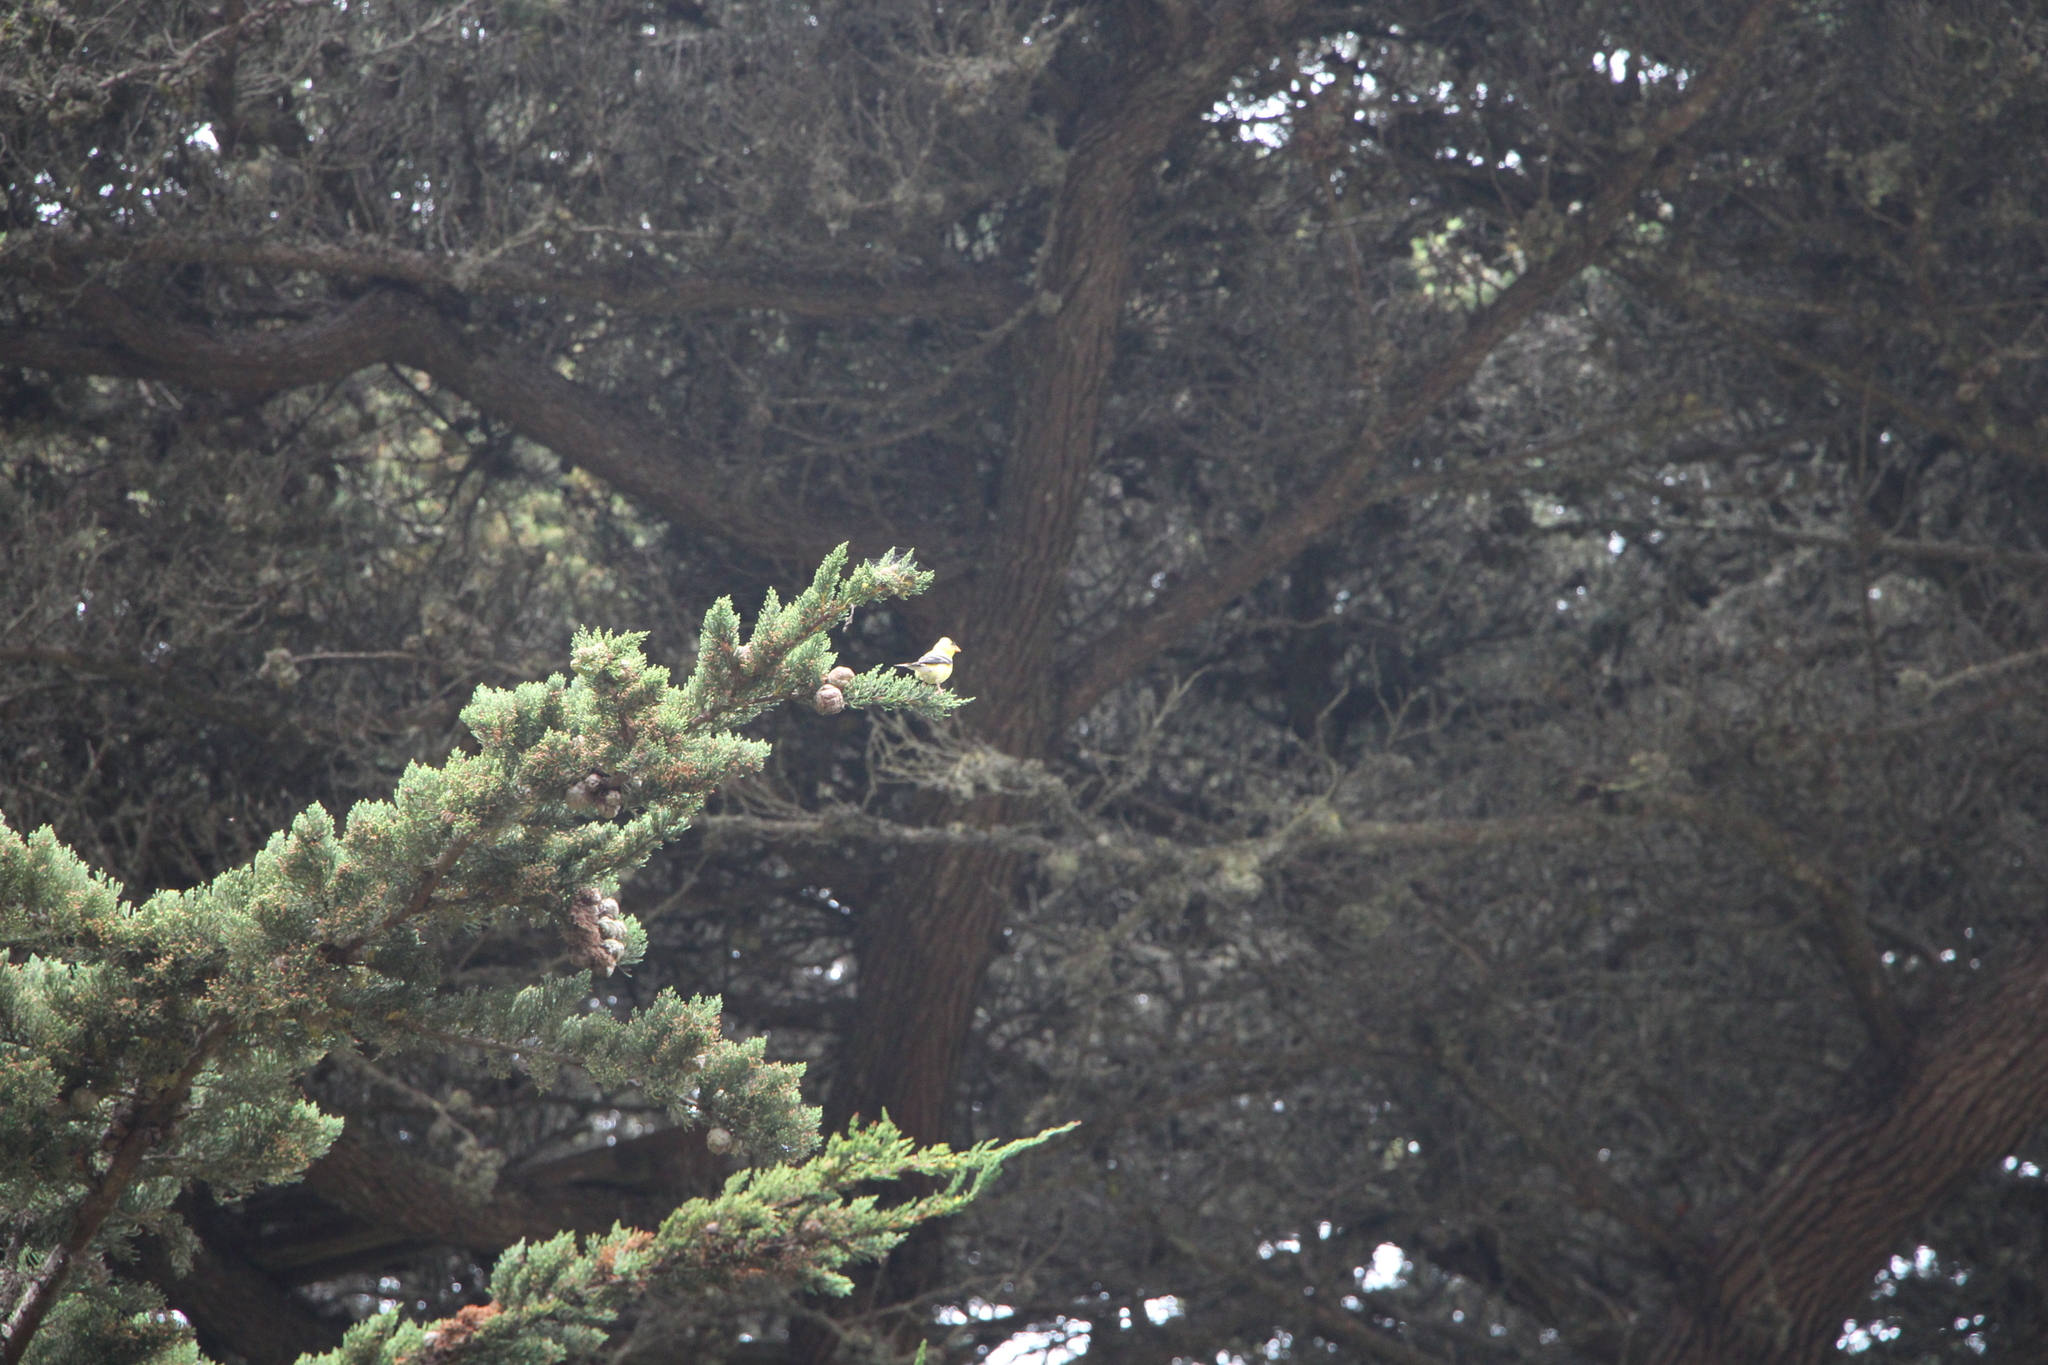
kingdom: Animalia
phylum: Chordata
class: Aves
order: Passeriformes
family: Fringillidae
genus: Spinus
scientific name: Spinus tristis
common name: American goldfinch
